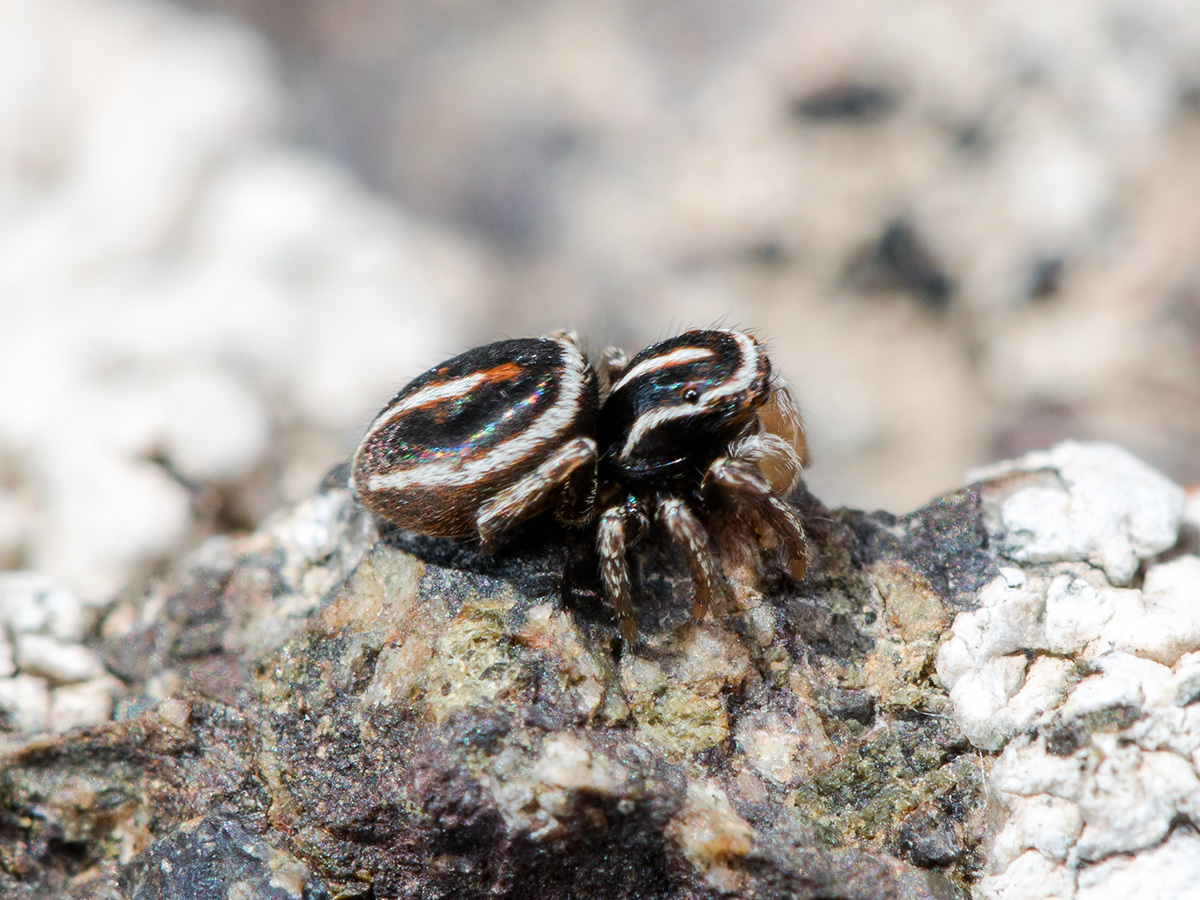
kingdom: Animalia
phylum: Arthropoda
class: Arachnida
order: Araneae
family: Salticidae
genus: Attulus
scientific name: Attulus monstrabilis
